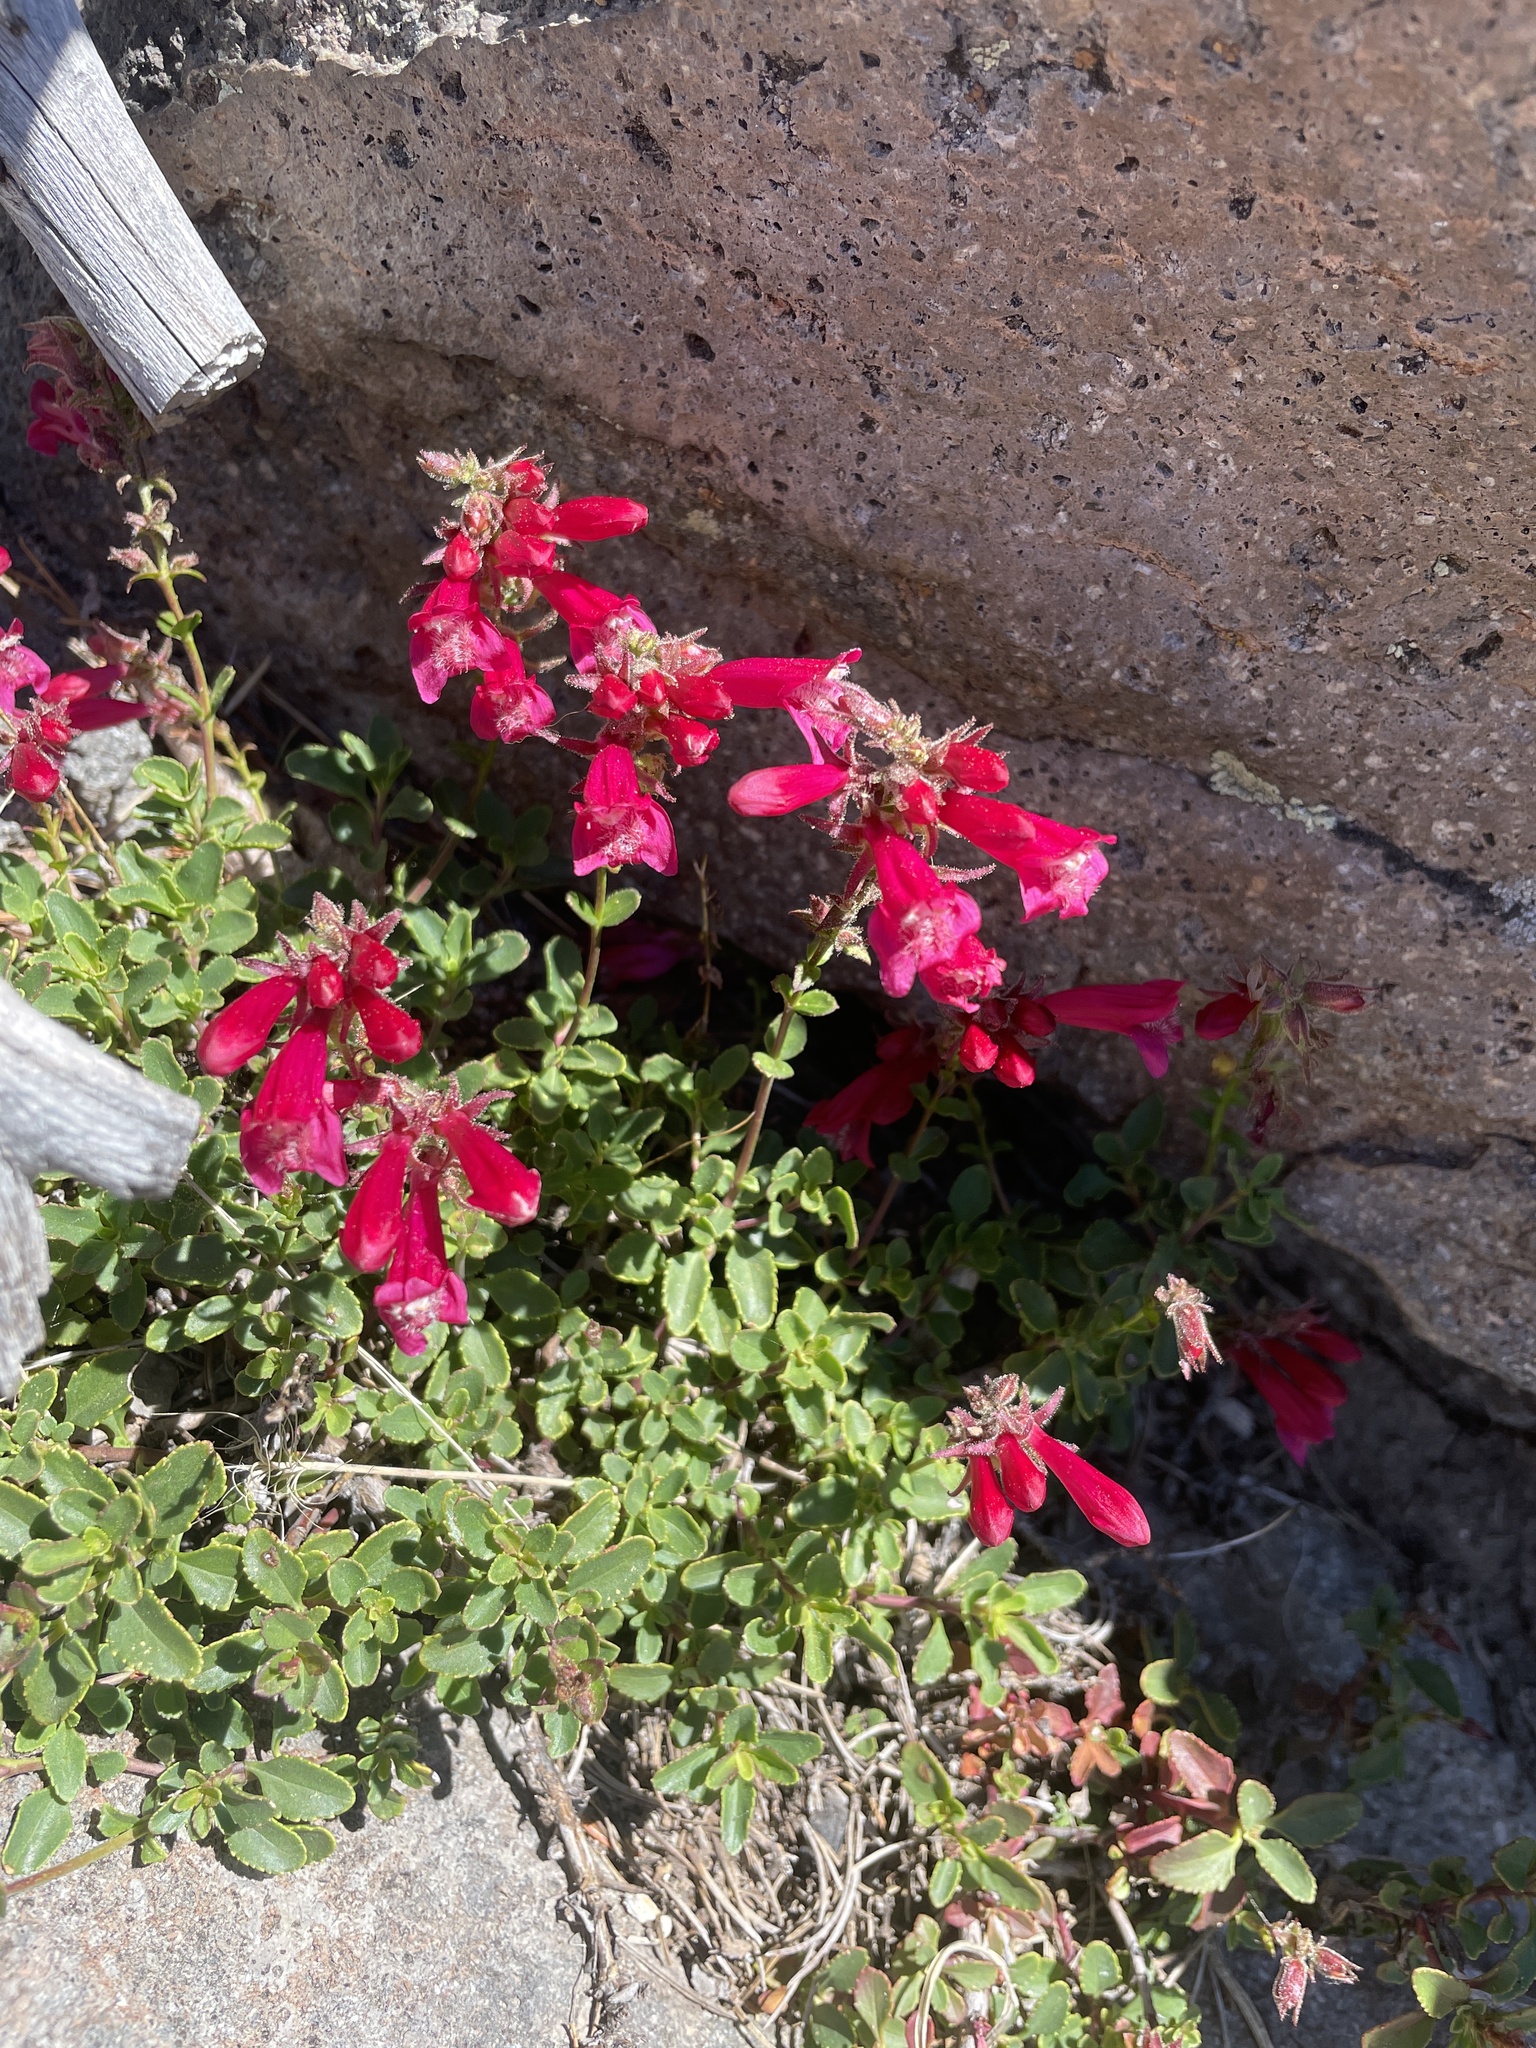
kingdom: Plantae
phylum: Tracheophyta
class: Magnoliopsida
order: Lamiales
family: Plantaginaceae
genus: Penstemon
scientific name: Penstemon newberryi
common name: Mountain-pride
